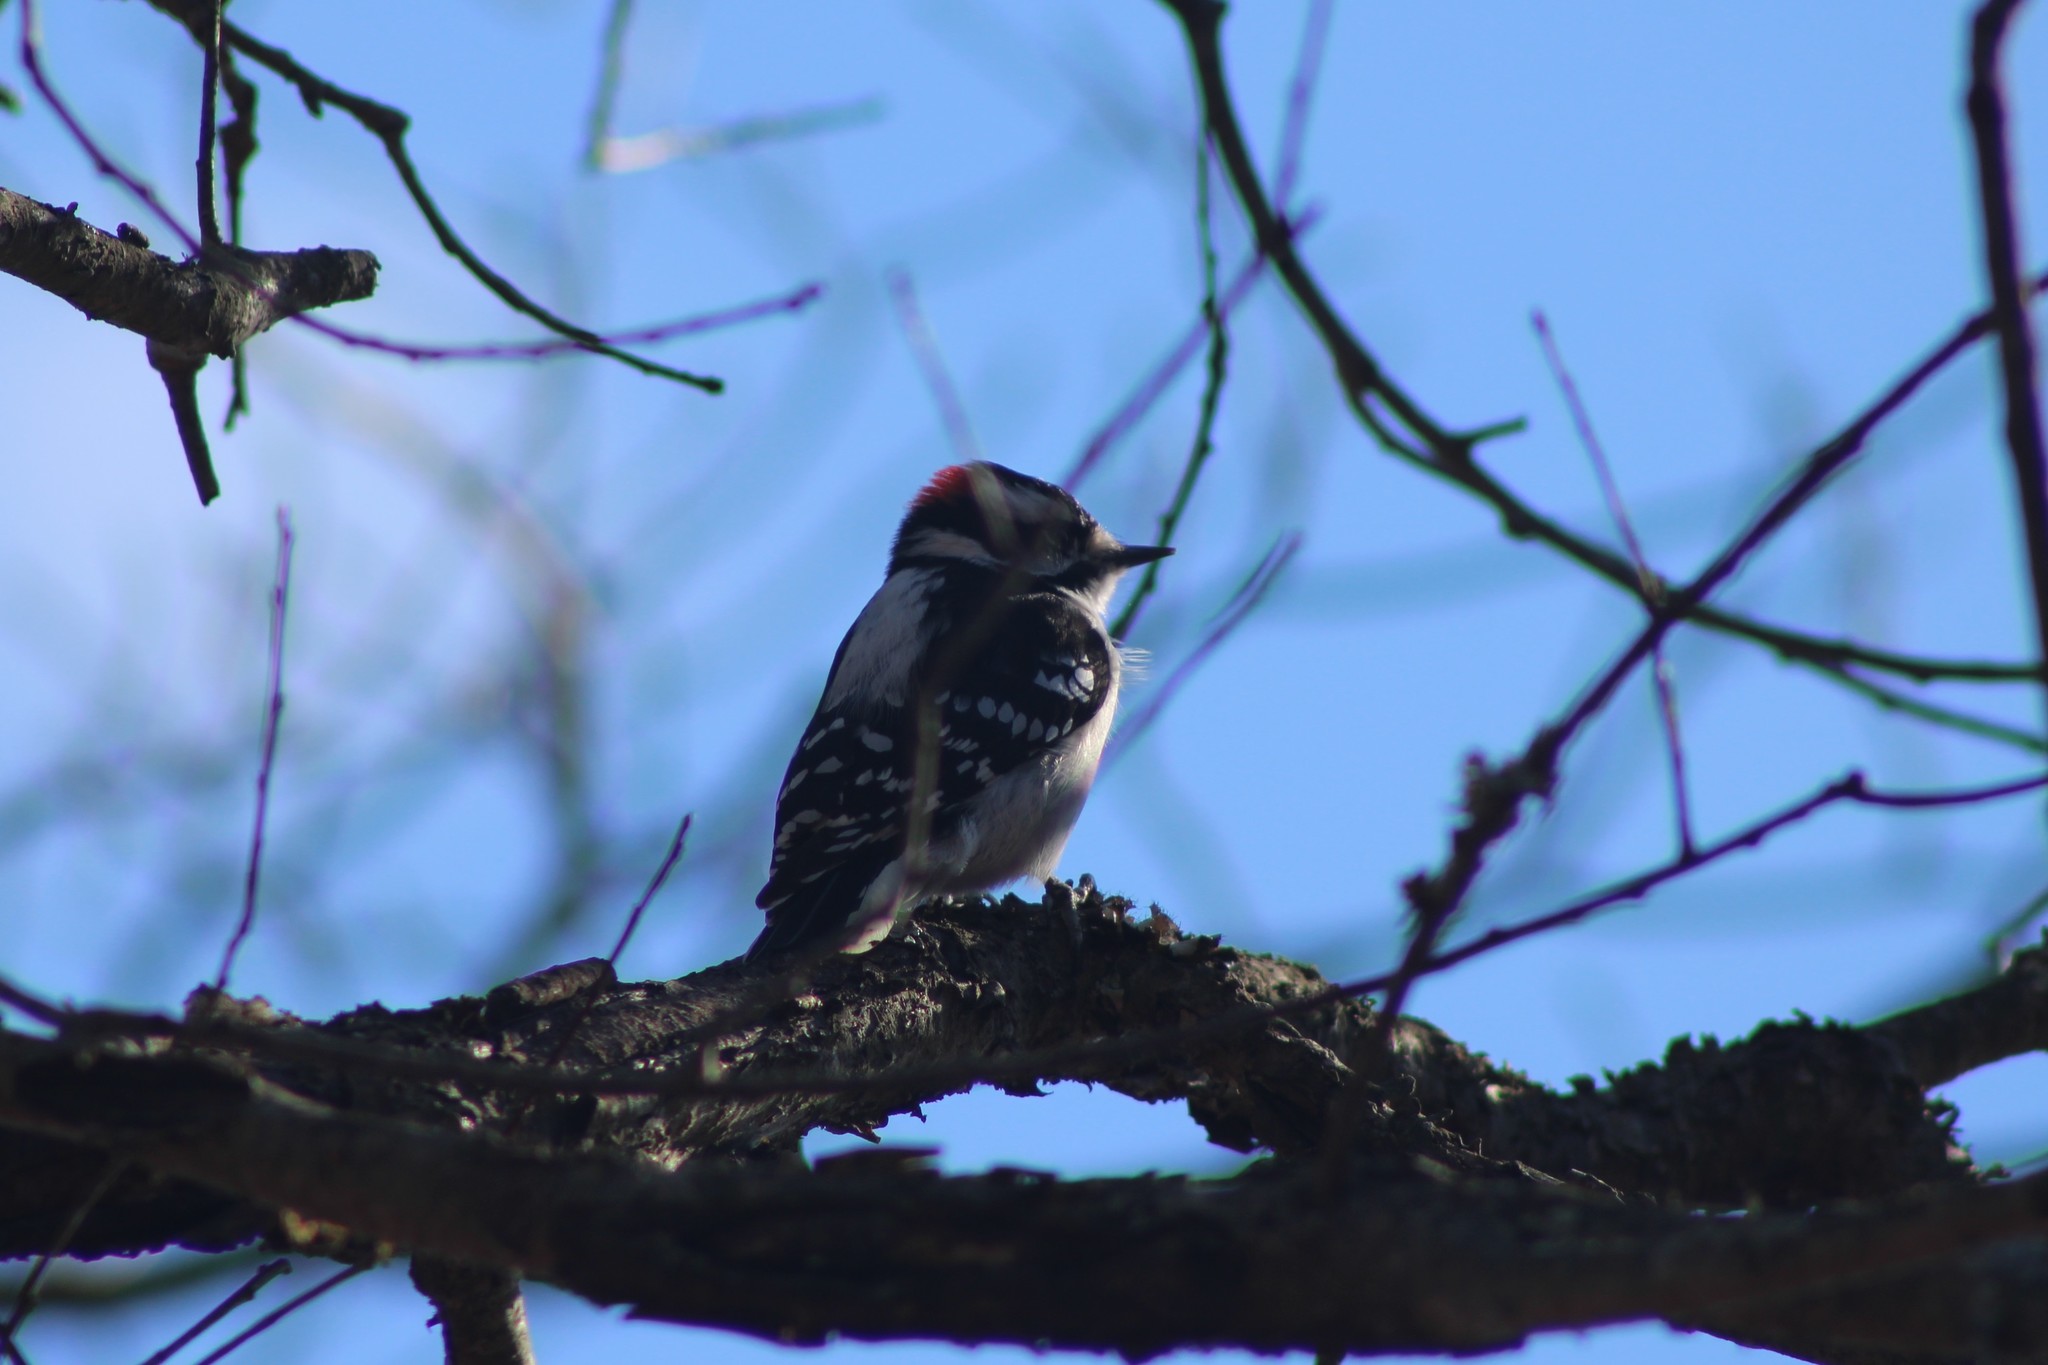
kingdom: Animalia
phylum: Chordata
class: Aves
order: Piciformes
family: Picidae
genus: Dryobates
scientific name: Dryobates pubescens
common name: Downy woodpecker
